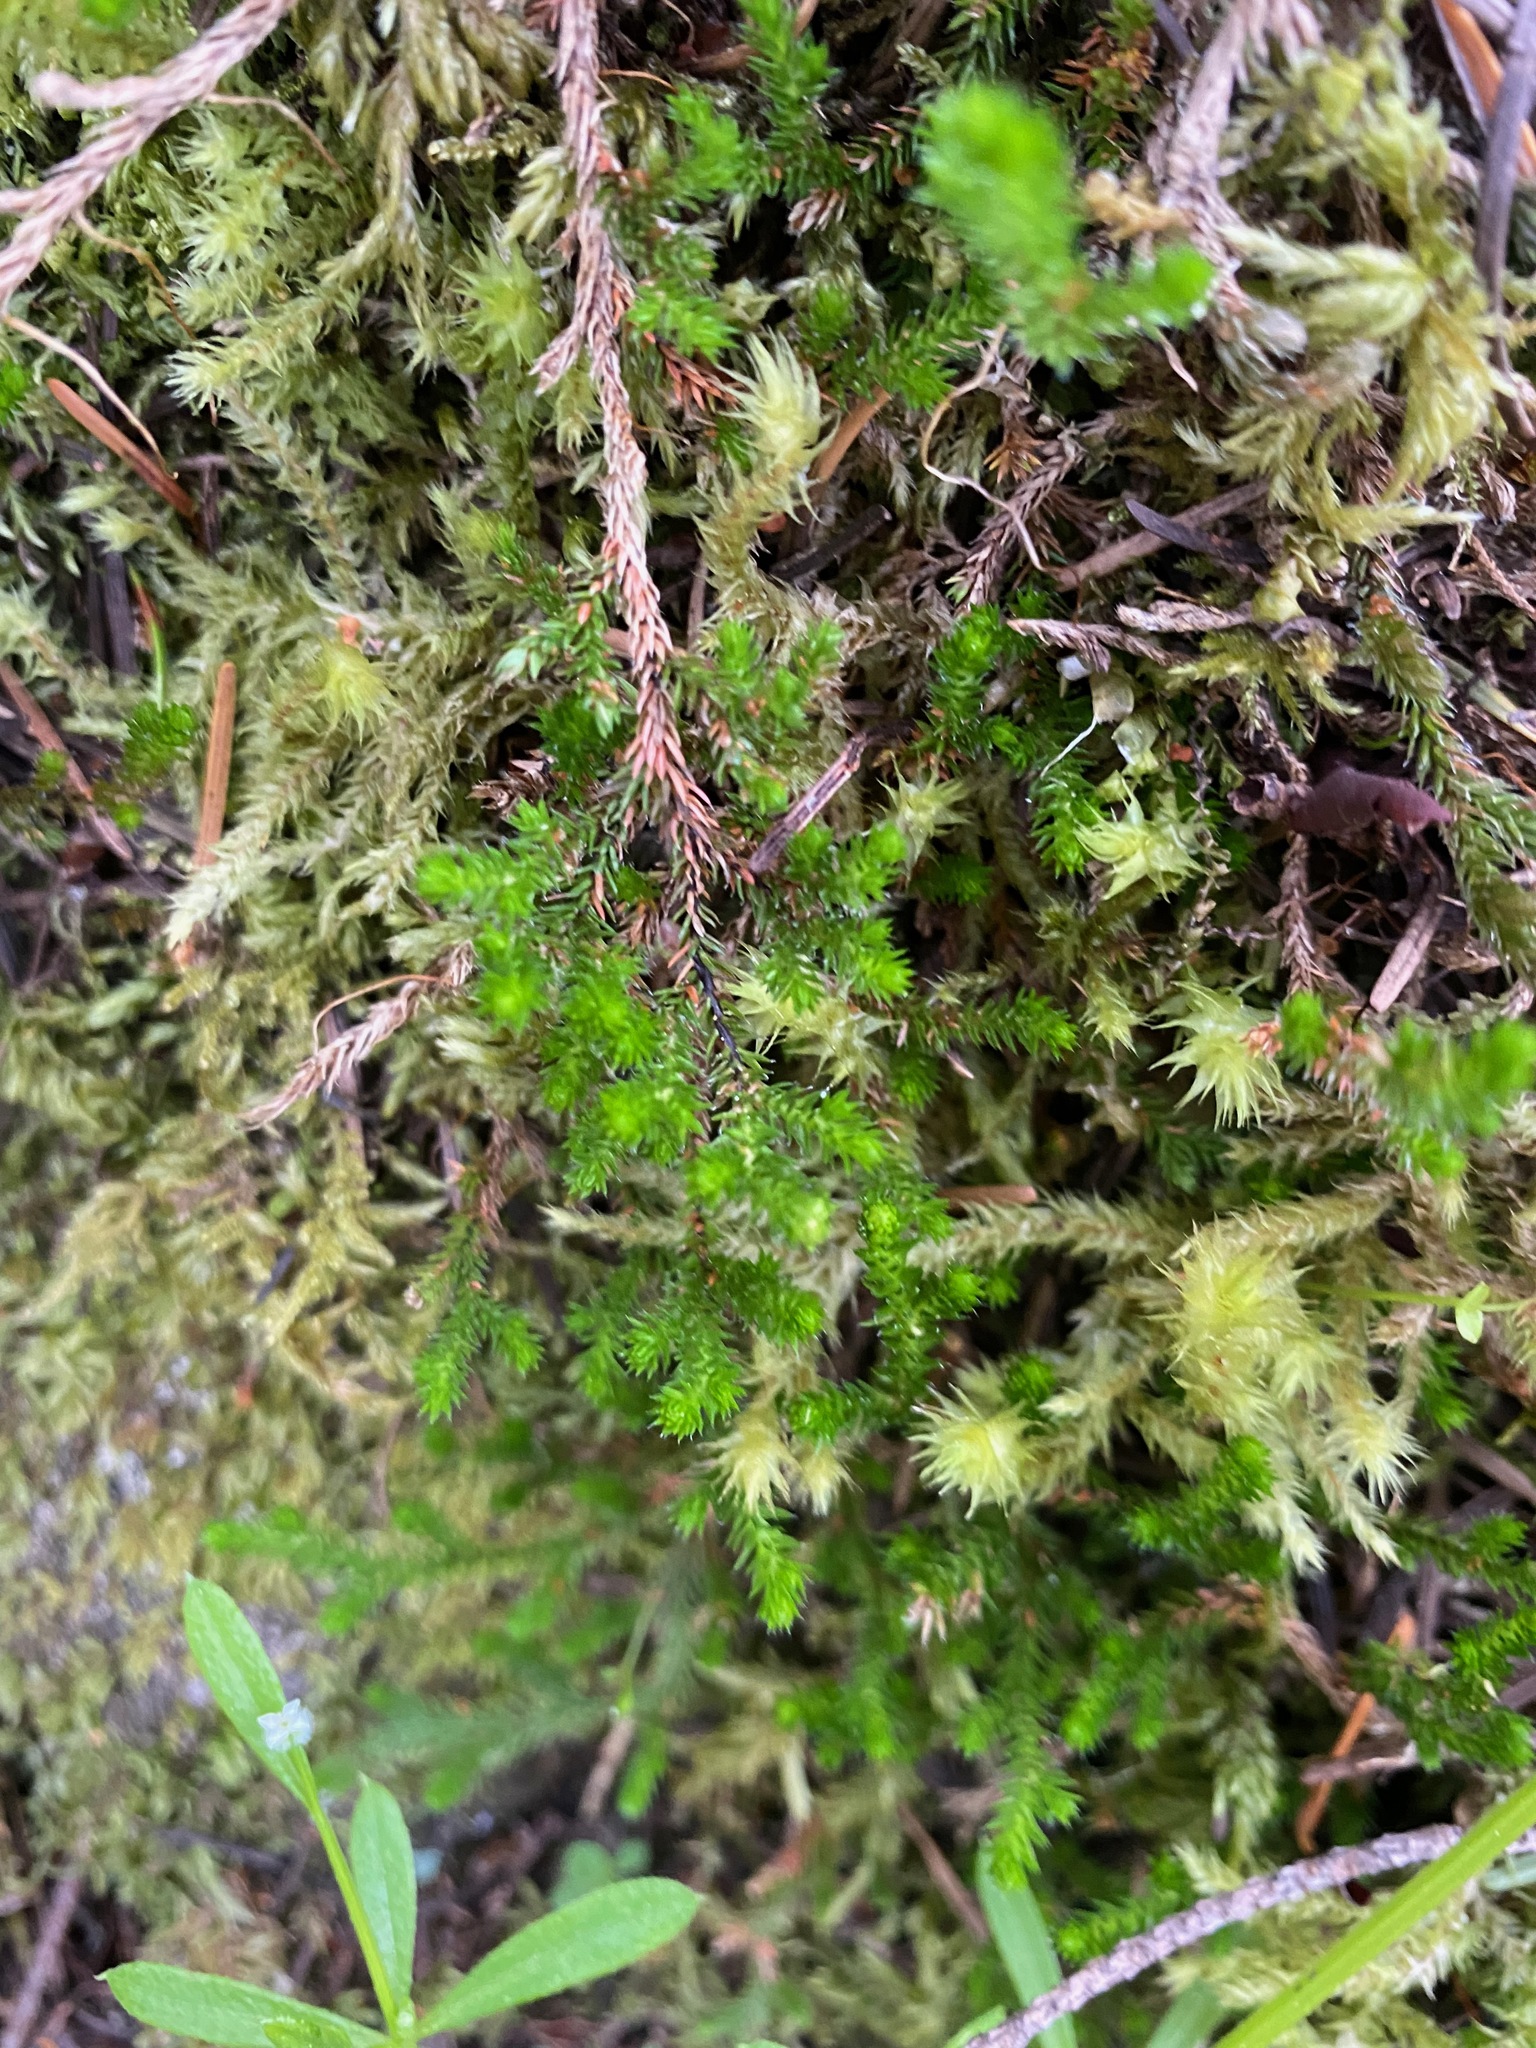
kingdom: Plantae
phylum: Tracheophyta
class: Lycopodiopsida
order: Selaginellales
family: Selaginellaceae
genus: Selaginella
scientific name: Selaginella wallacei
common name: Wallace's selaginella
